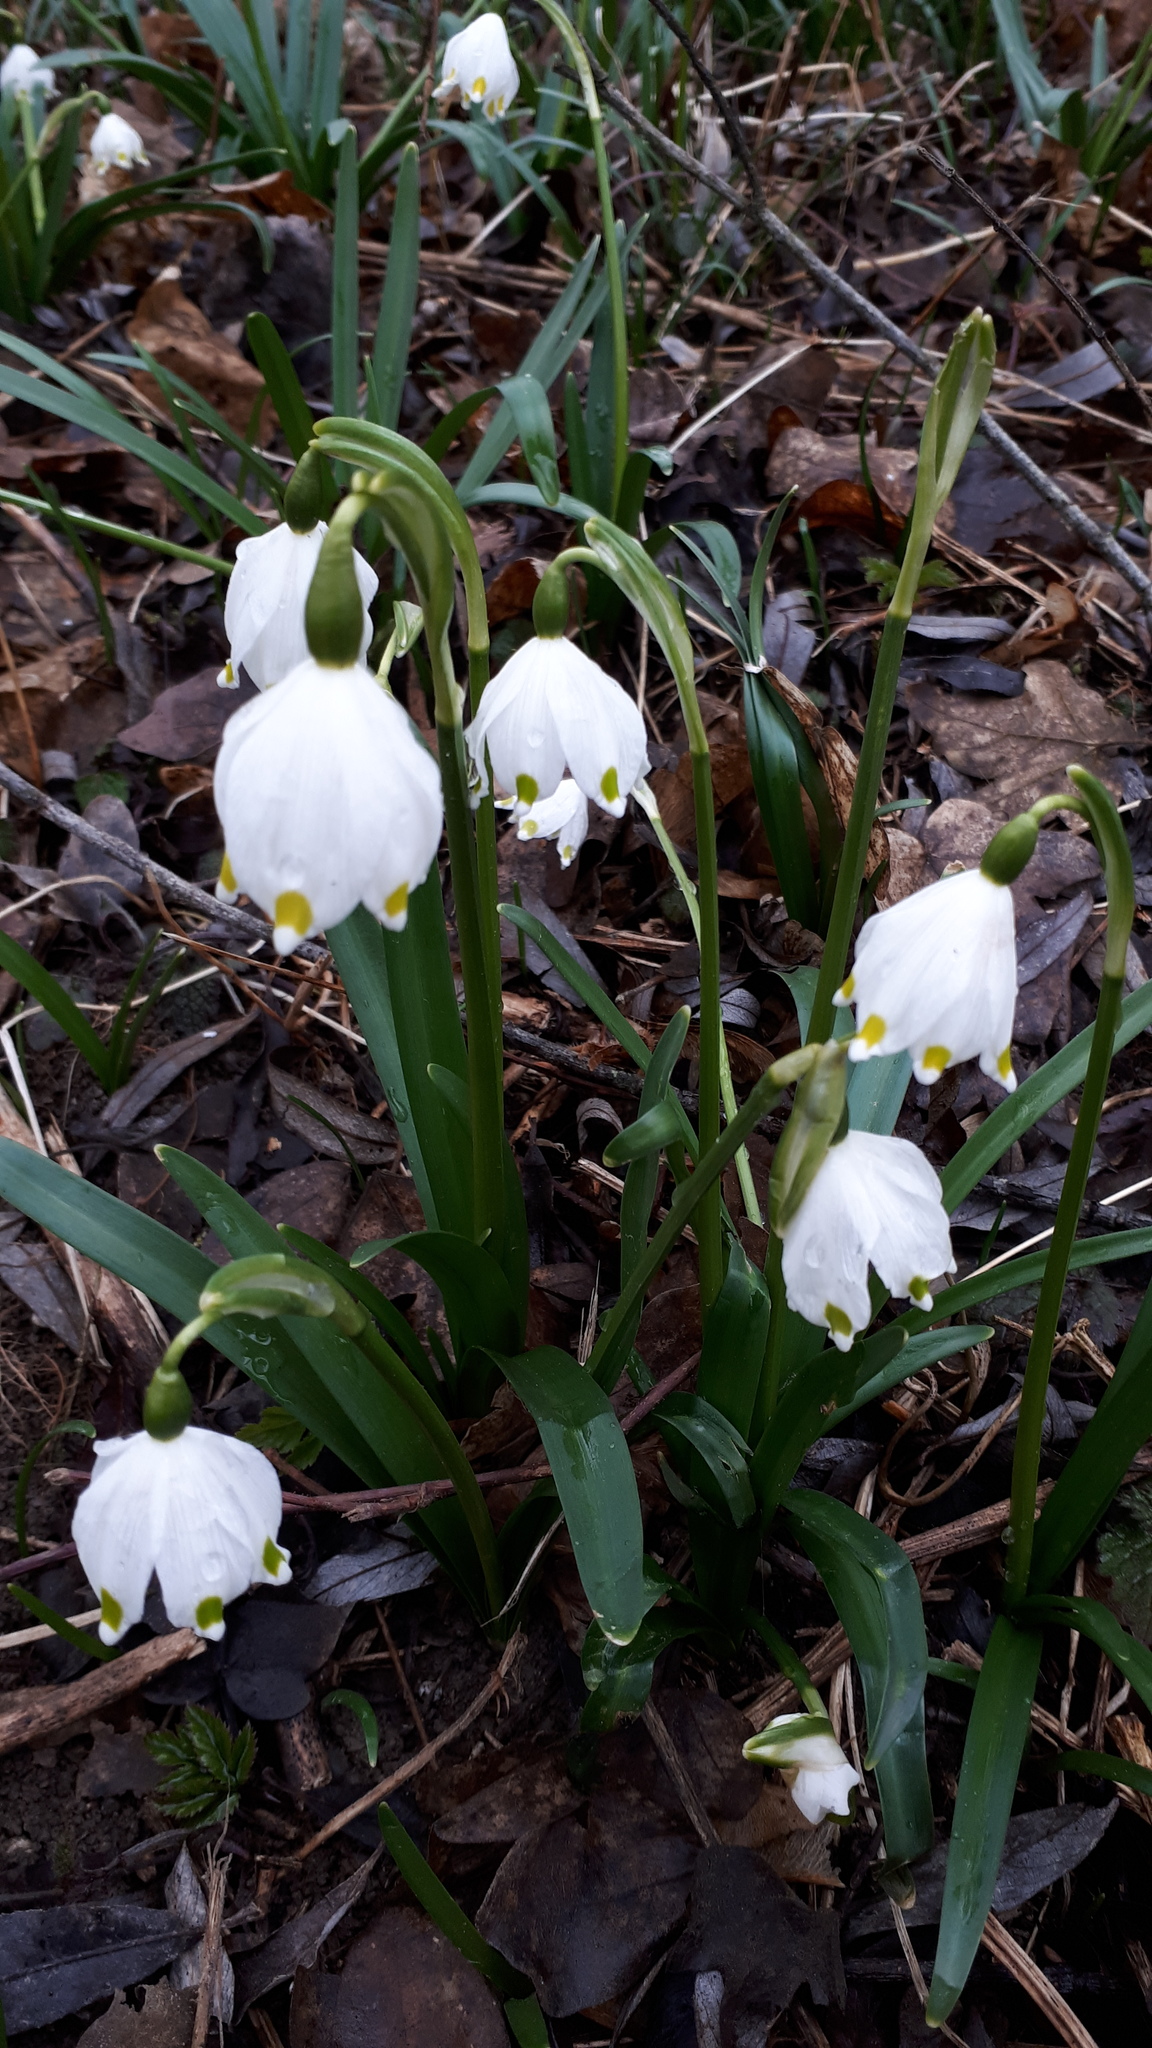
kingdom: Plantae
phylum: Tracheophyta
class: Liliopsida
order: Asparagales
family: Amaryllidaceae
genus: Leucojum
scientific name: Leucojum vernum
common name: Spring snowflake
